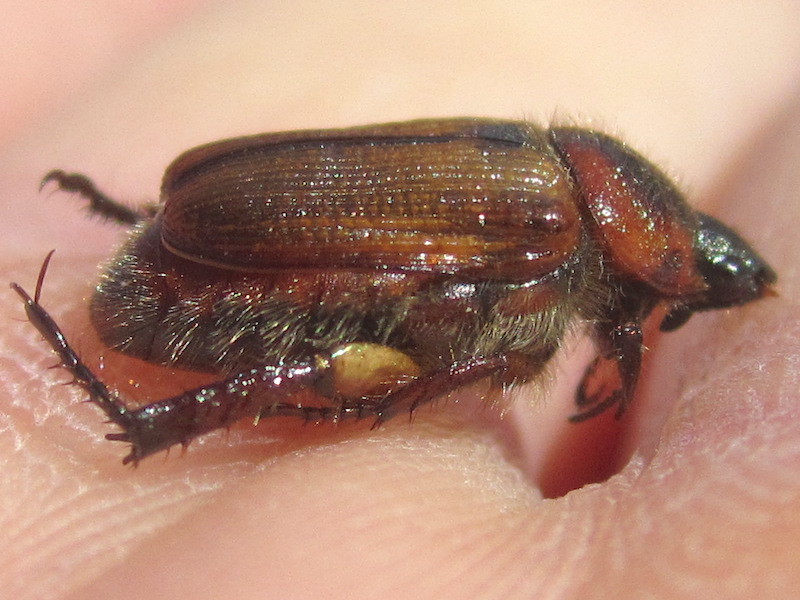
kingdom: Animalia
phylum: Arthropoda
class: Insecta
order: Coleoptera
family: Scarabaeidae
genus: Strigoderma
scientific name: Strigoderma arbicola
